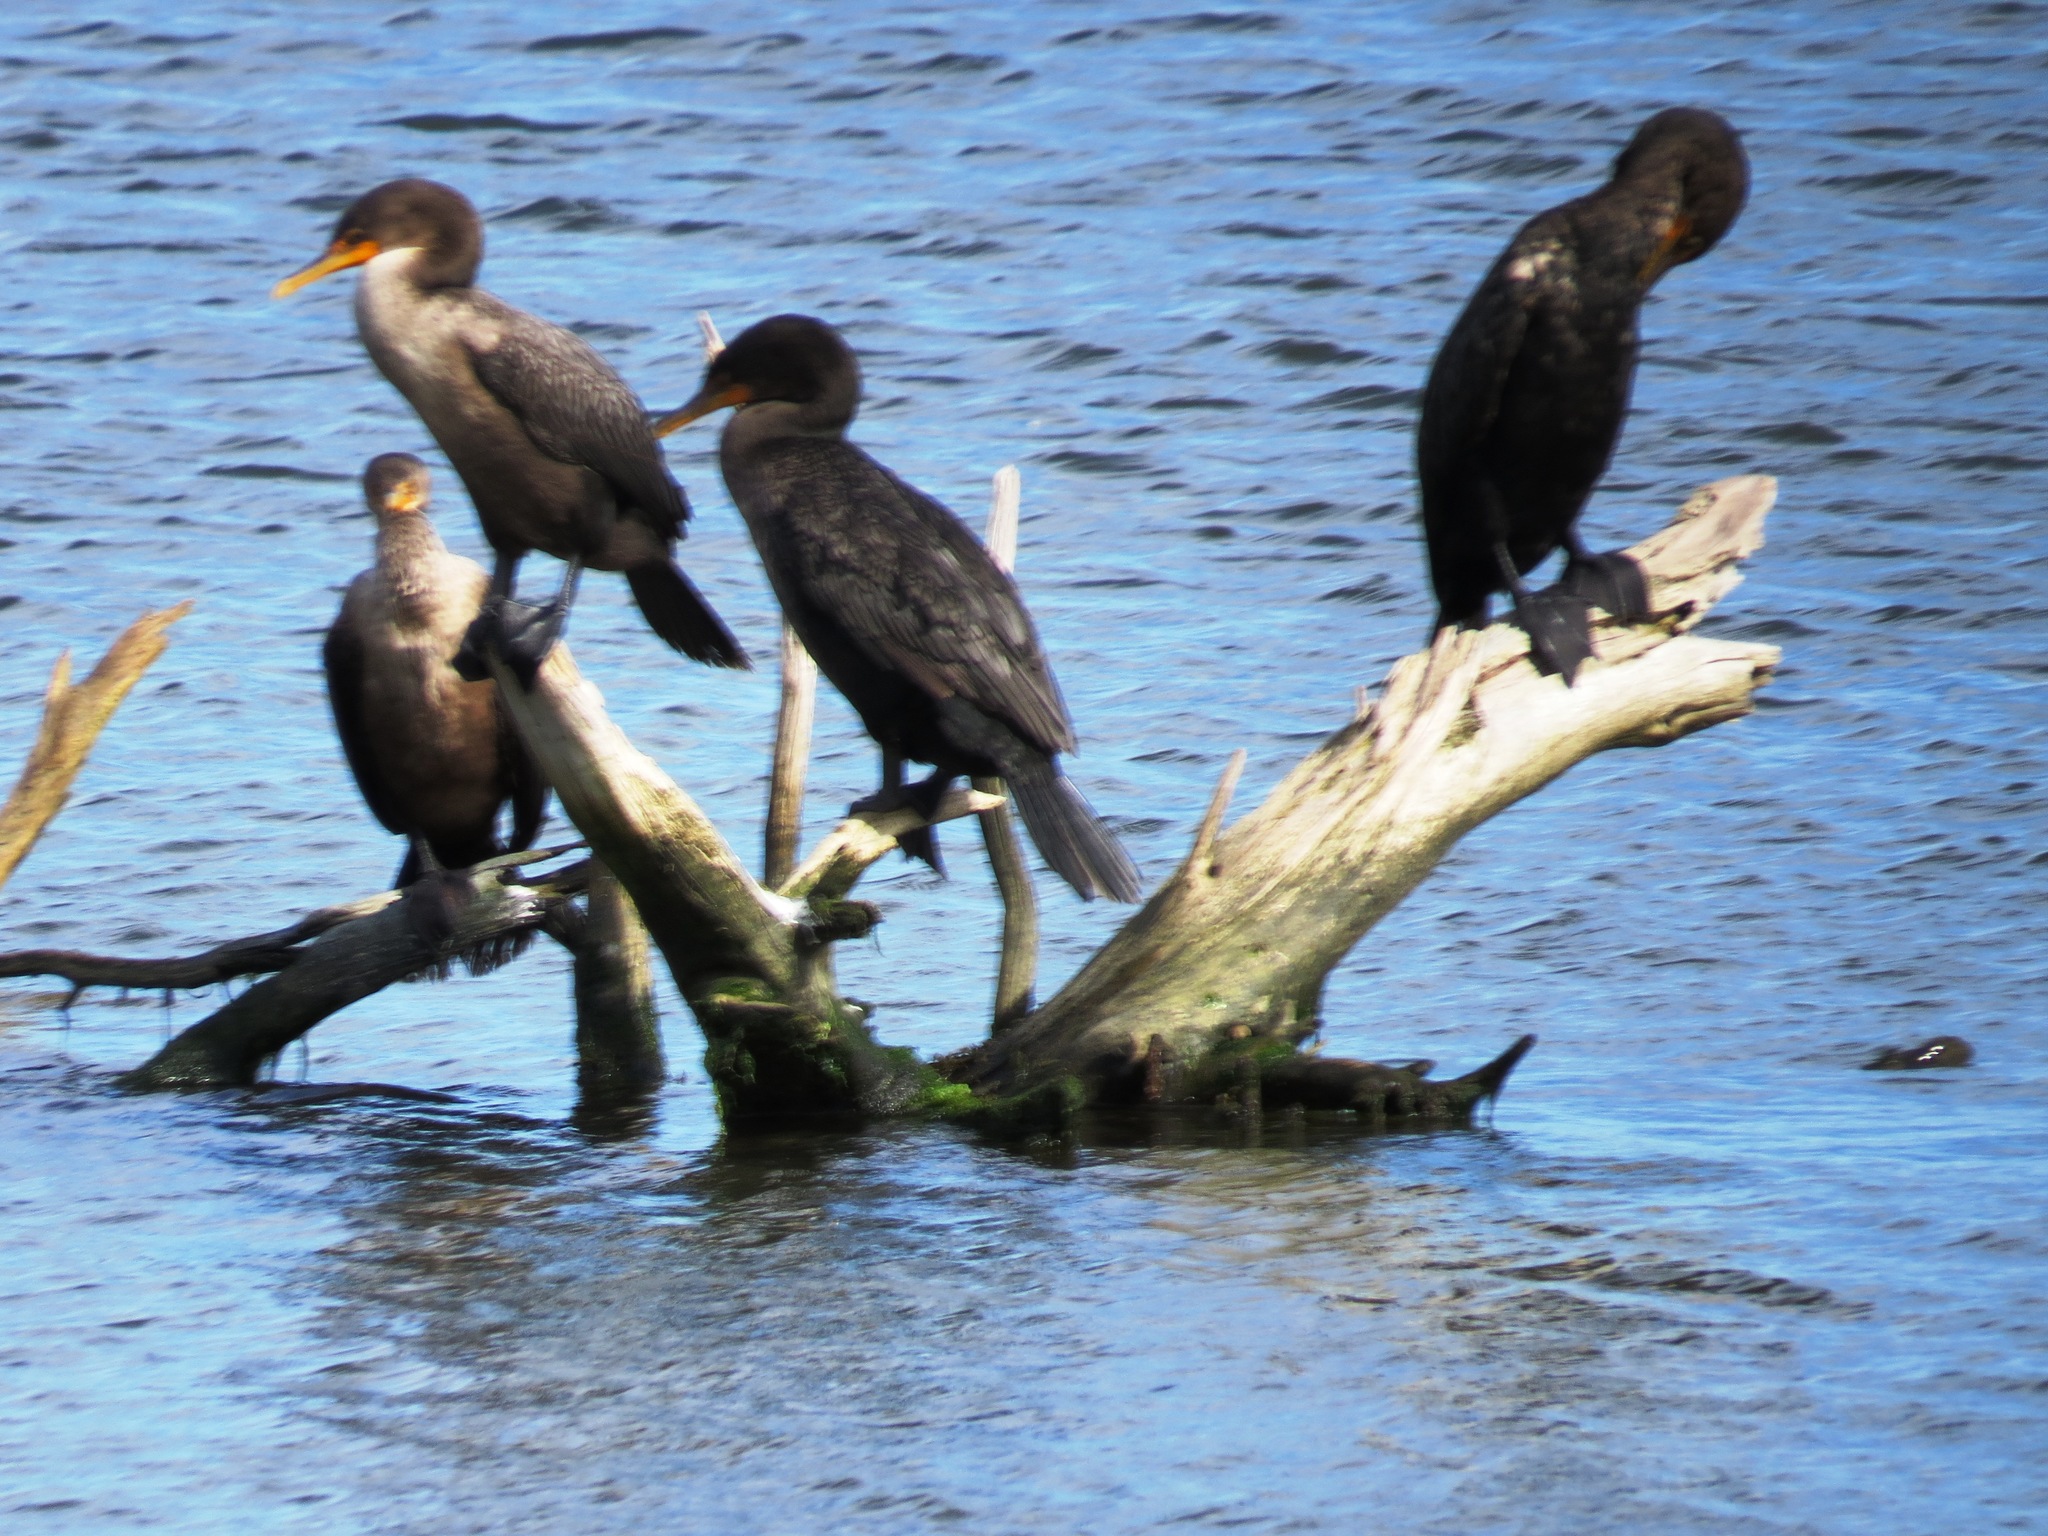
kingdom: Animalia
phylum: Chordata
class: Aves
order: Suliformes
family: Phalacrocoracidae
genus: Phalacrocorax
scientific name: Phalacrocorax auritus
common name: Double-crested cormorant
